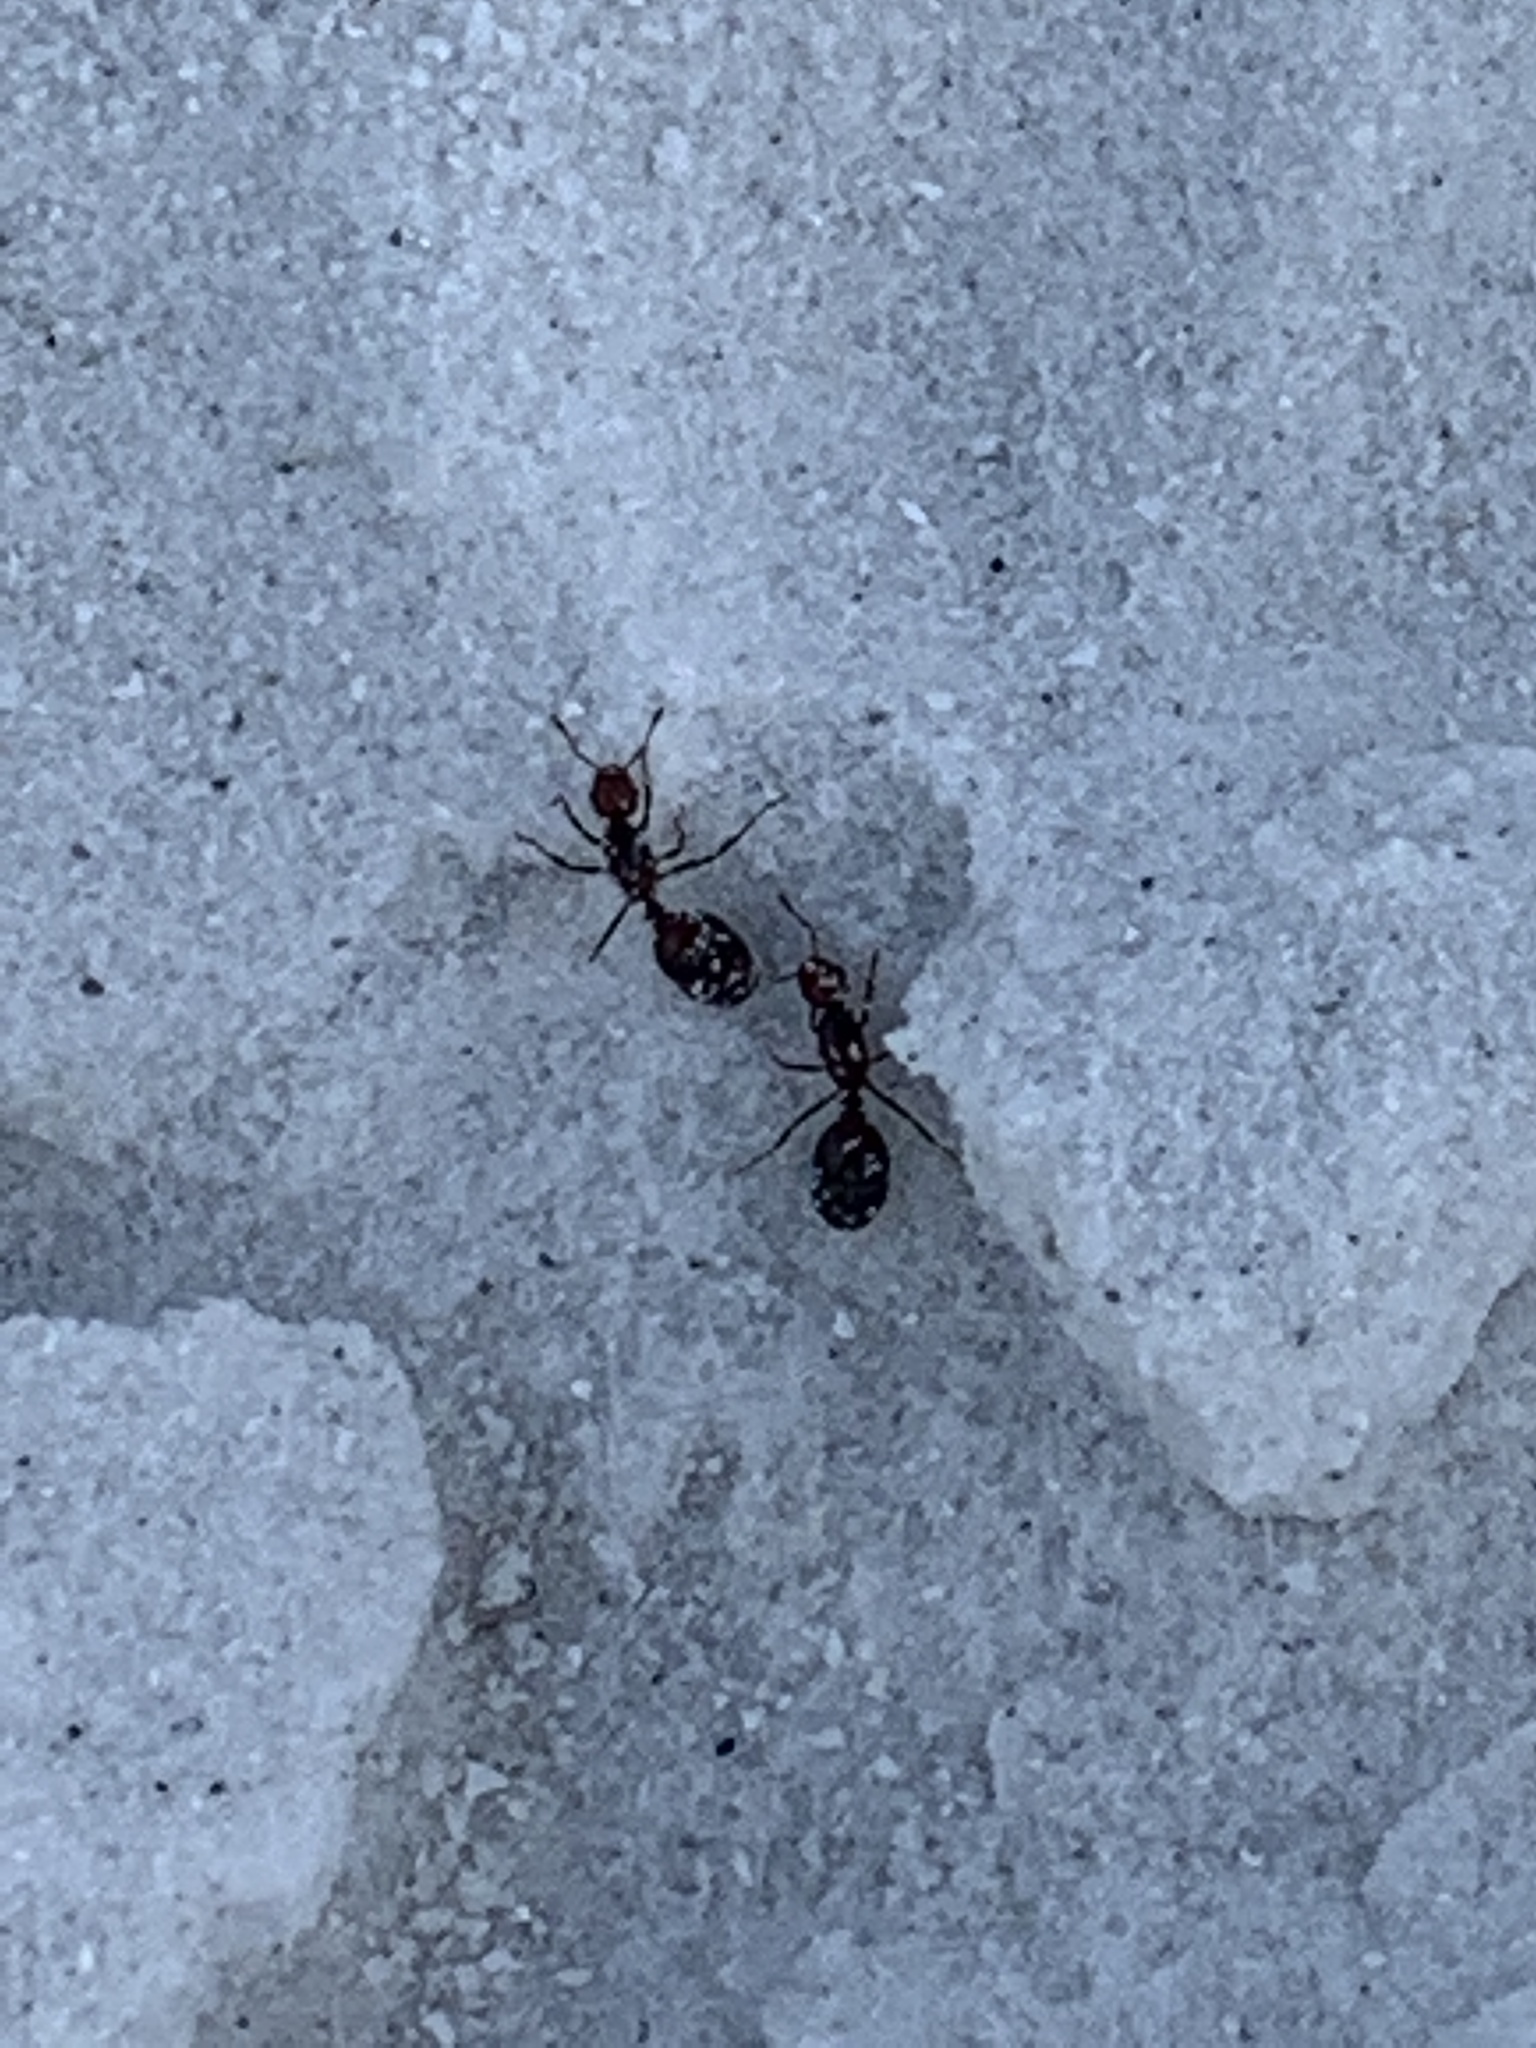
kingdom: Animalia
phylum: Arthropoda
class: Insecta
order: Hymenoptera
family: Formicidae
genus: Solenopsis
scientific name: Solenopsis invicta
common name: Red imported fire ant
